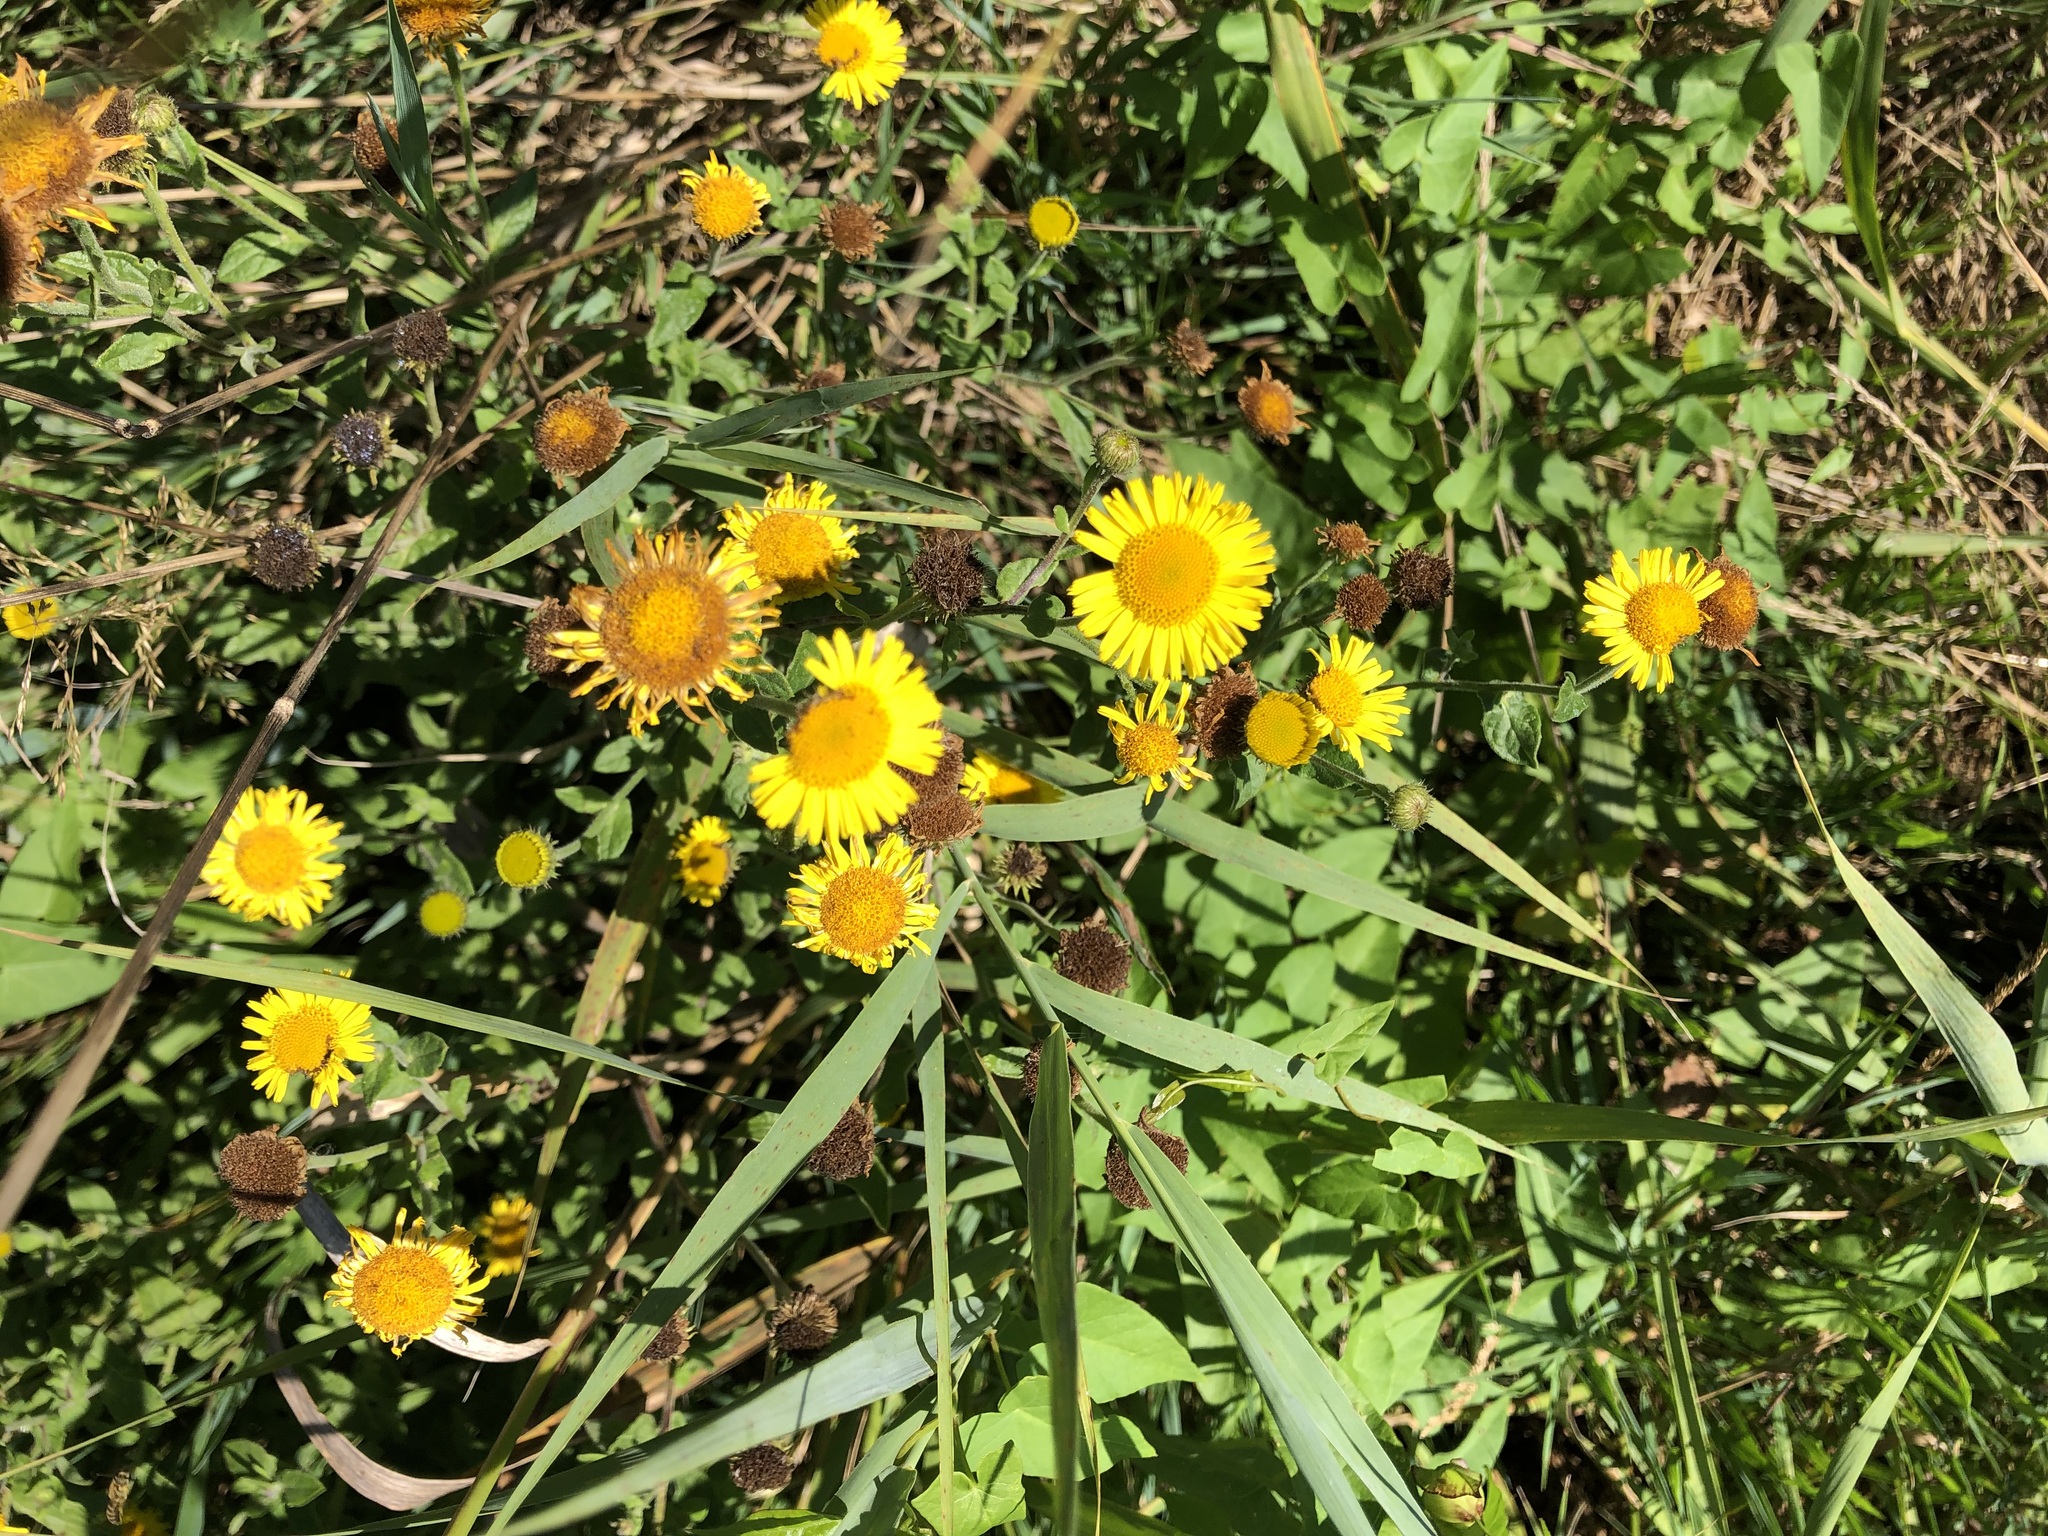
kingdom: Plantae
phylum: Tracheophyta
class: Magnoliopsida
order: Asterales
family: Asteraceae
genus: Pulicaria
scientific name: Pulicaria dysenterica
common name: Common fleabane
